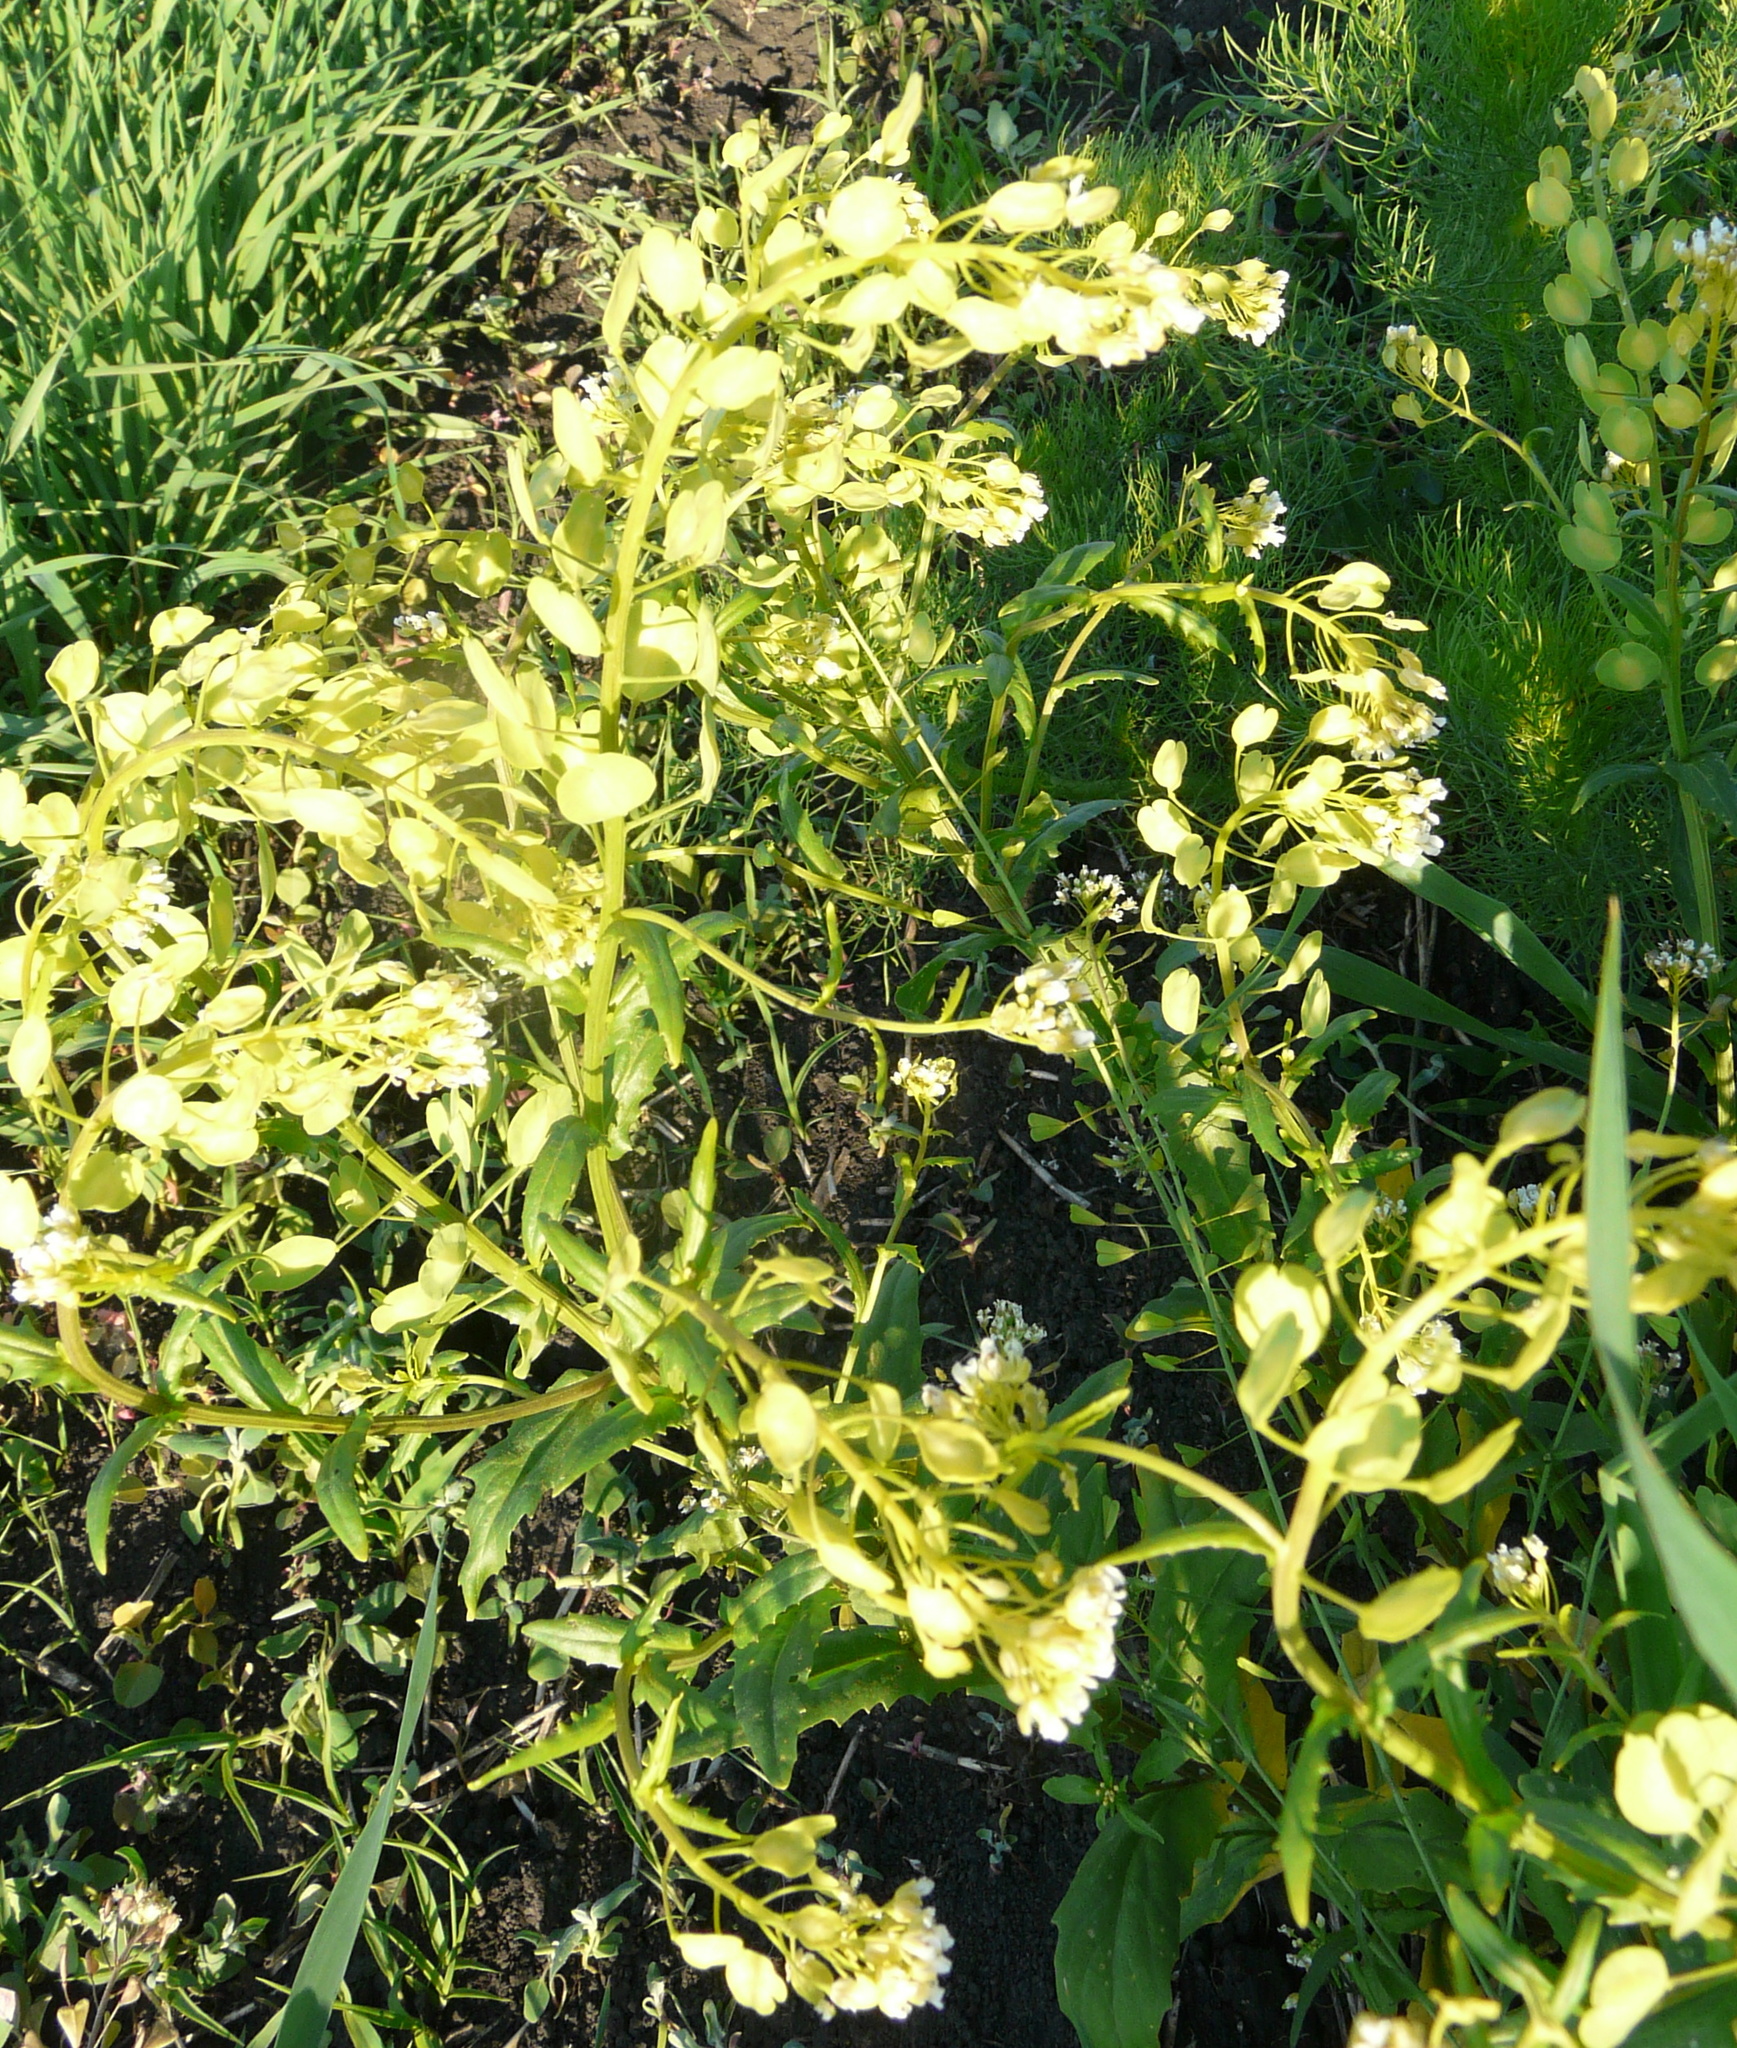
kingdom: Plantae
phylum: Tracheophyta
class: Magnoliopsida
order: Brassicales
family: Brassicaceae
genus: Thlaspi
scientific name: Thlaspi arvense
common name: Field pennycress
